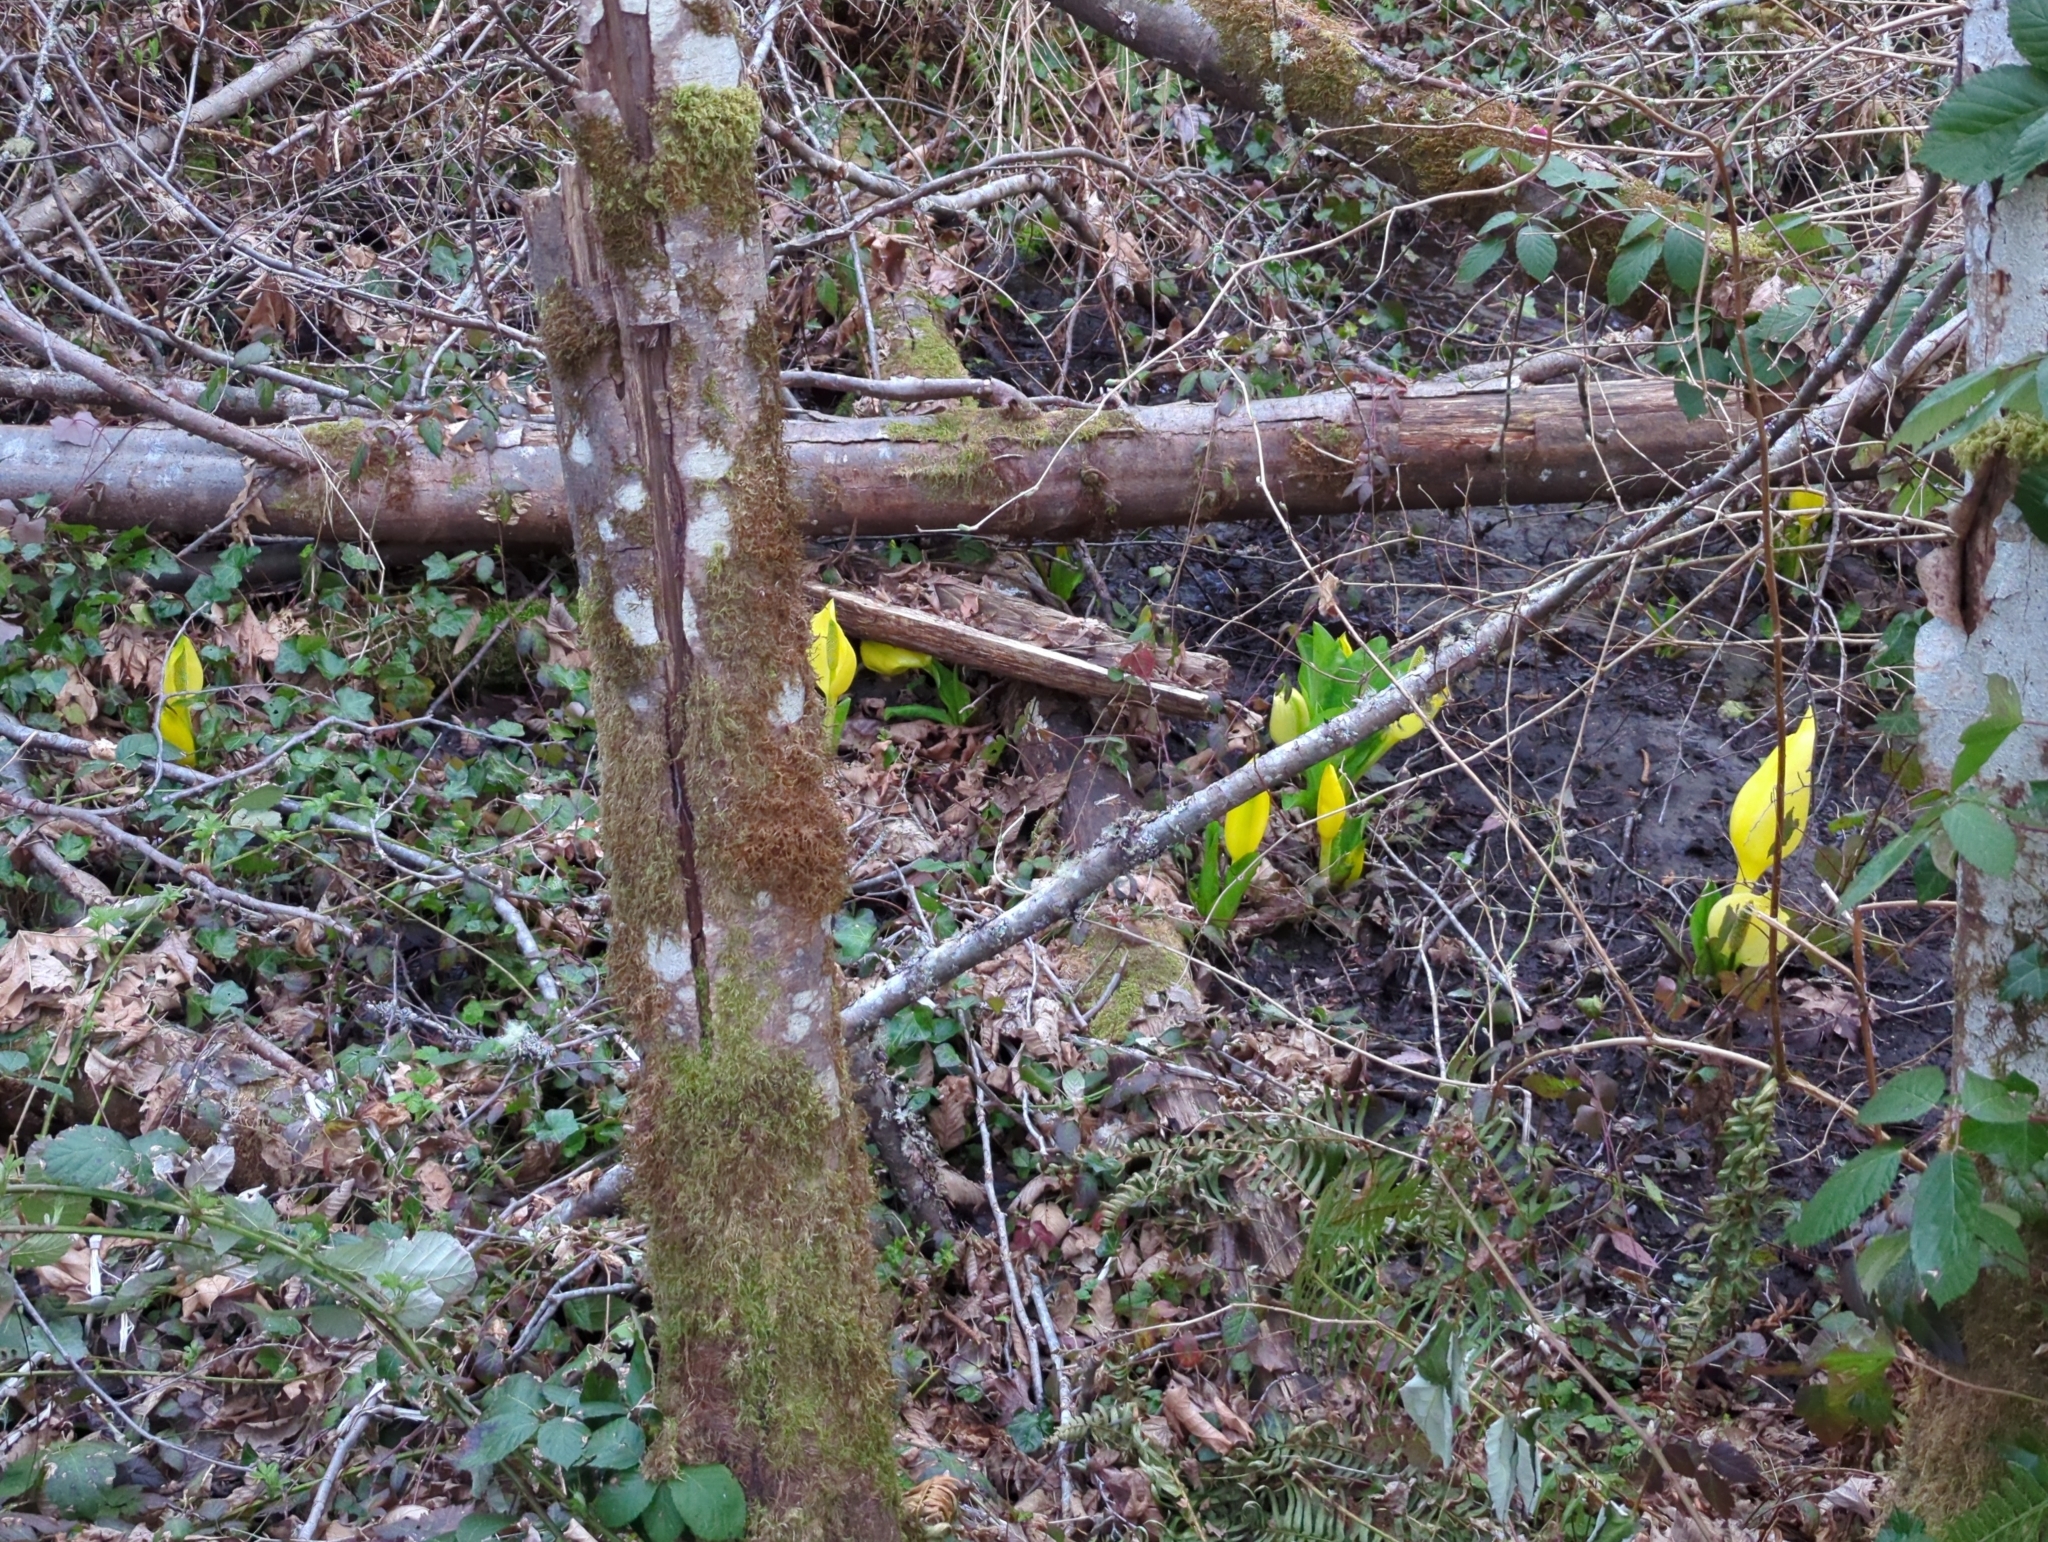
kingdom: Plantae
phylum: Tracheophyta
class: Liliopsida
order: Alismatales
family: Araceae
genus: Lysichiton
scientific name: Lysichiton americanus
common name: American skunk cabbage
